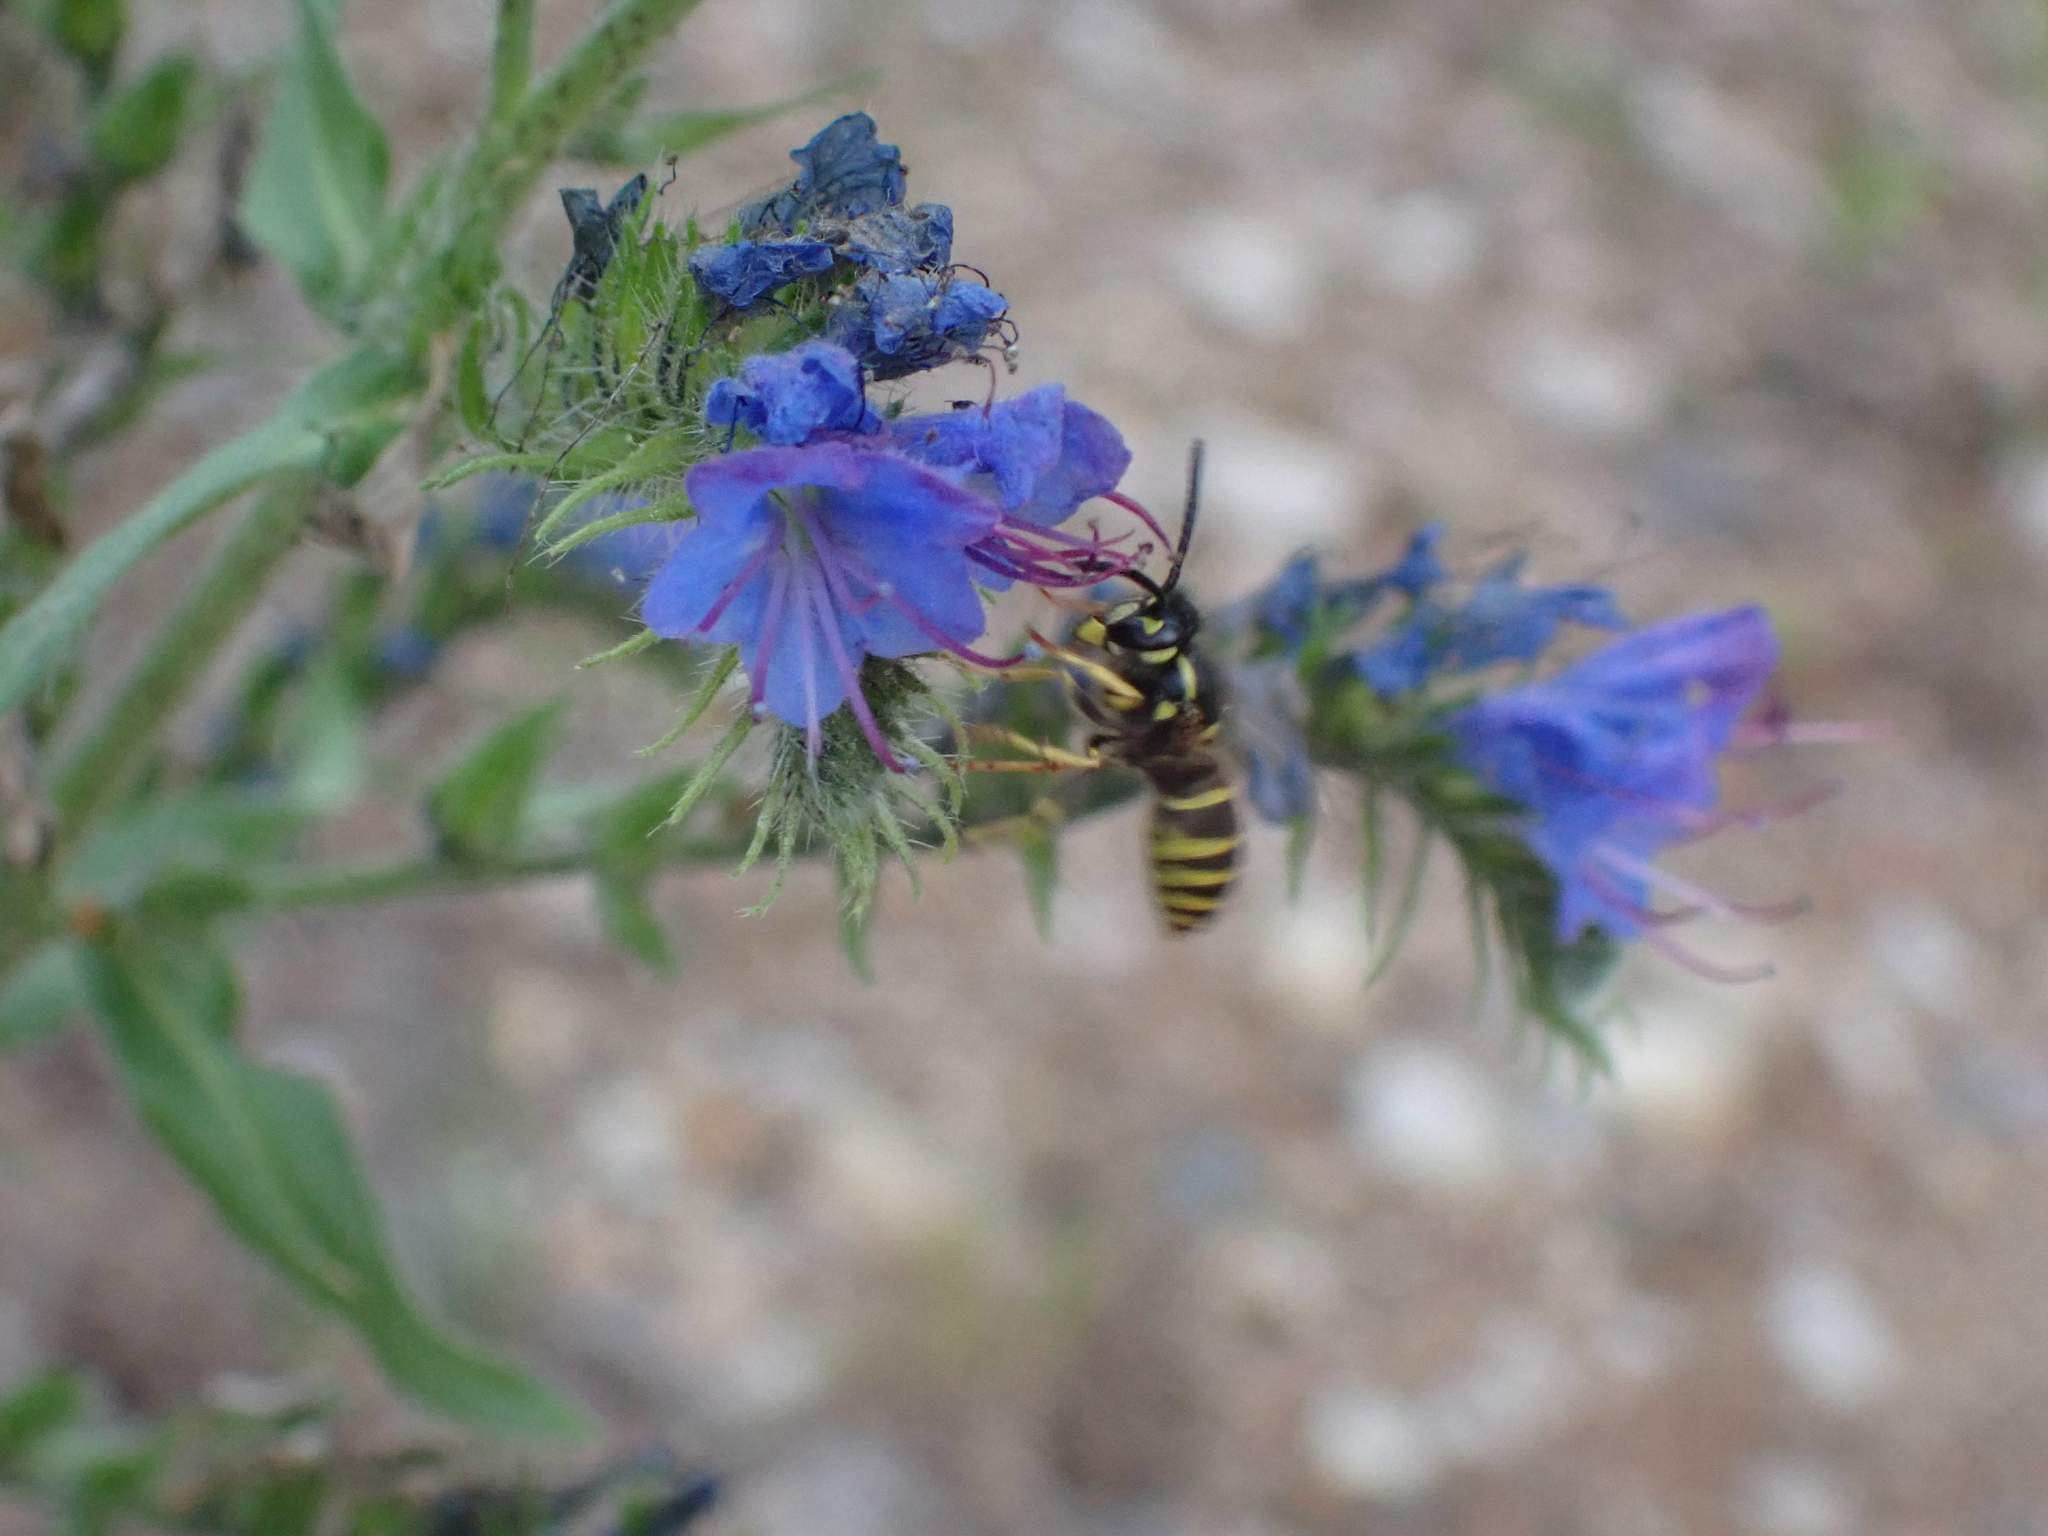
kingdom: Animalia
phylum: Arthropoda
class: Insecta
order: Hymenoptera
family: Vespidae
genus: Vespula
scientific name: Vespula vulgaris
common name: Common wasp
